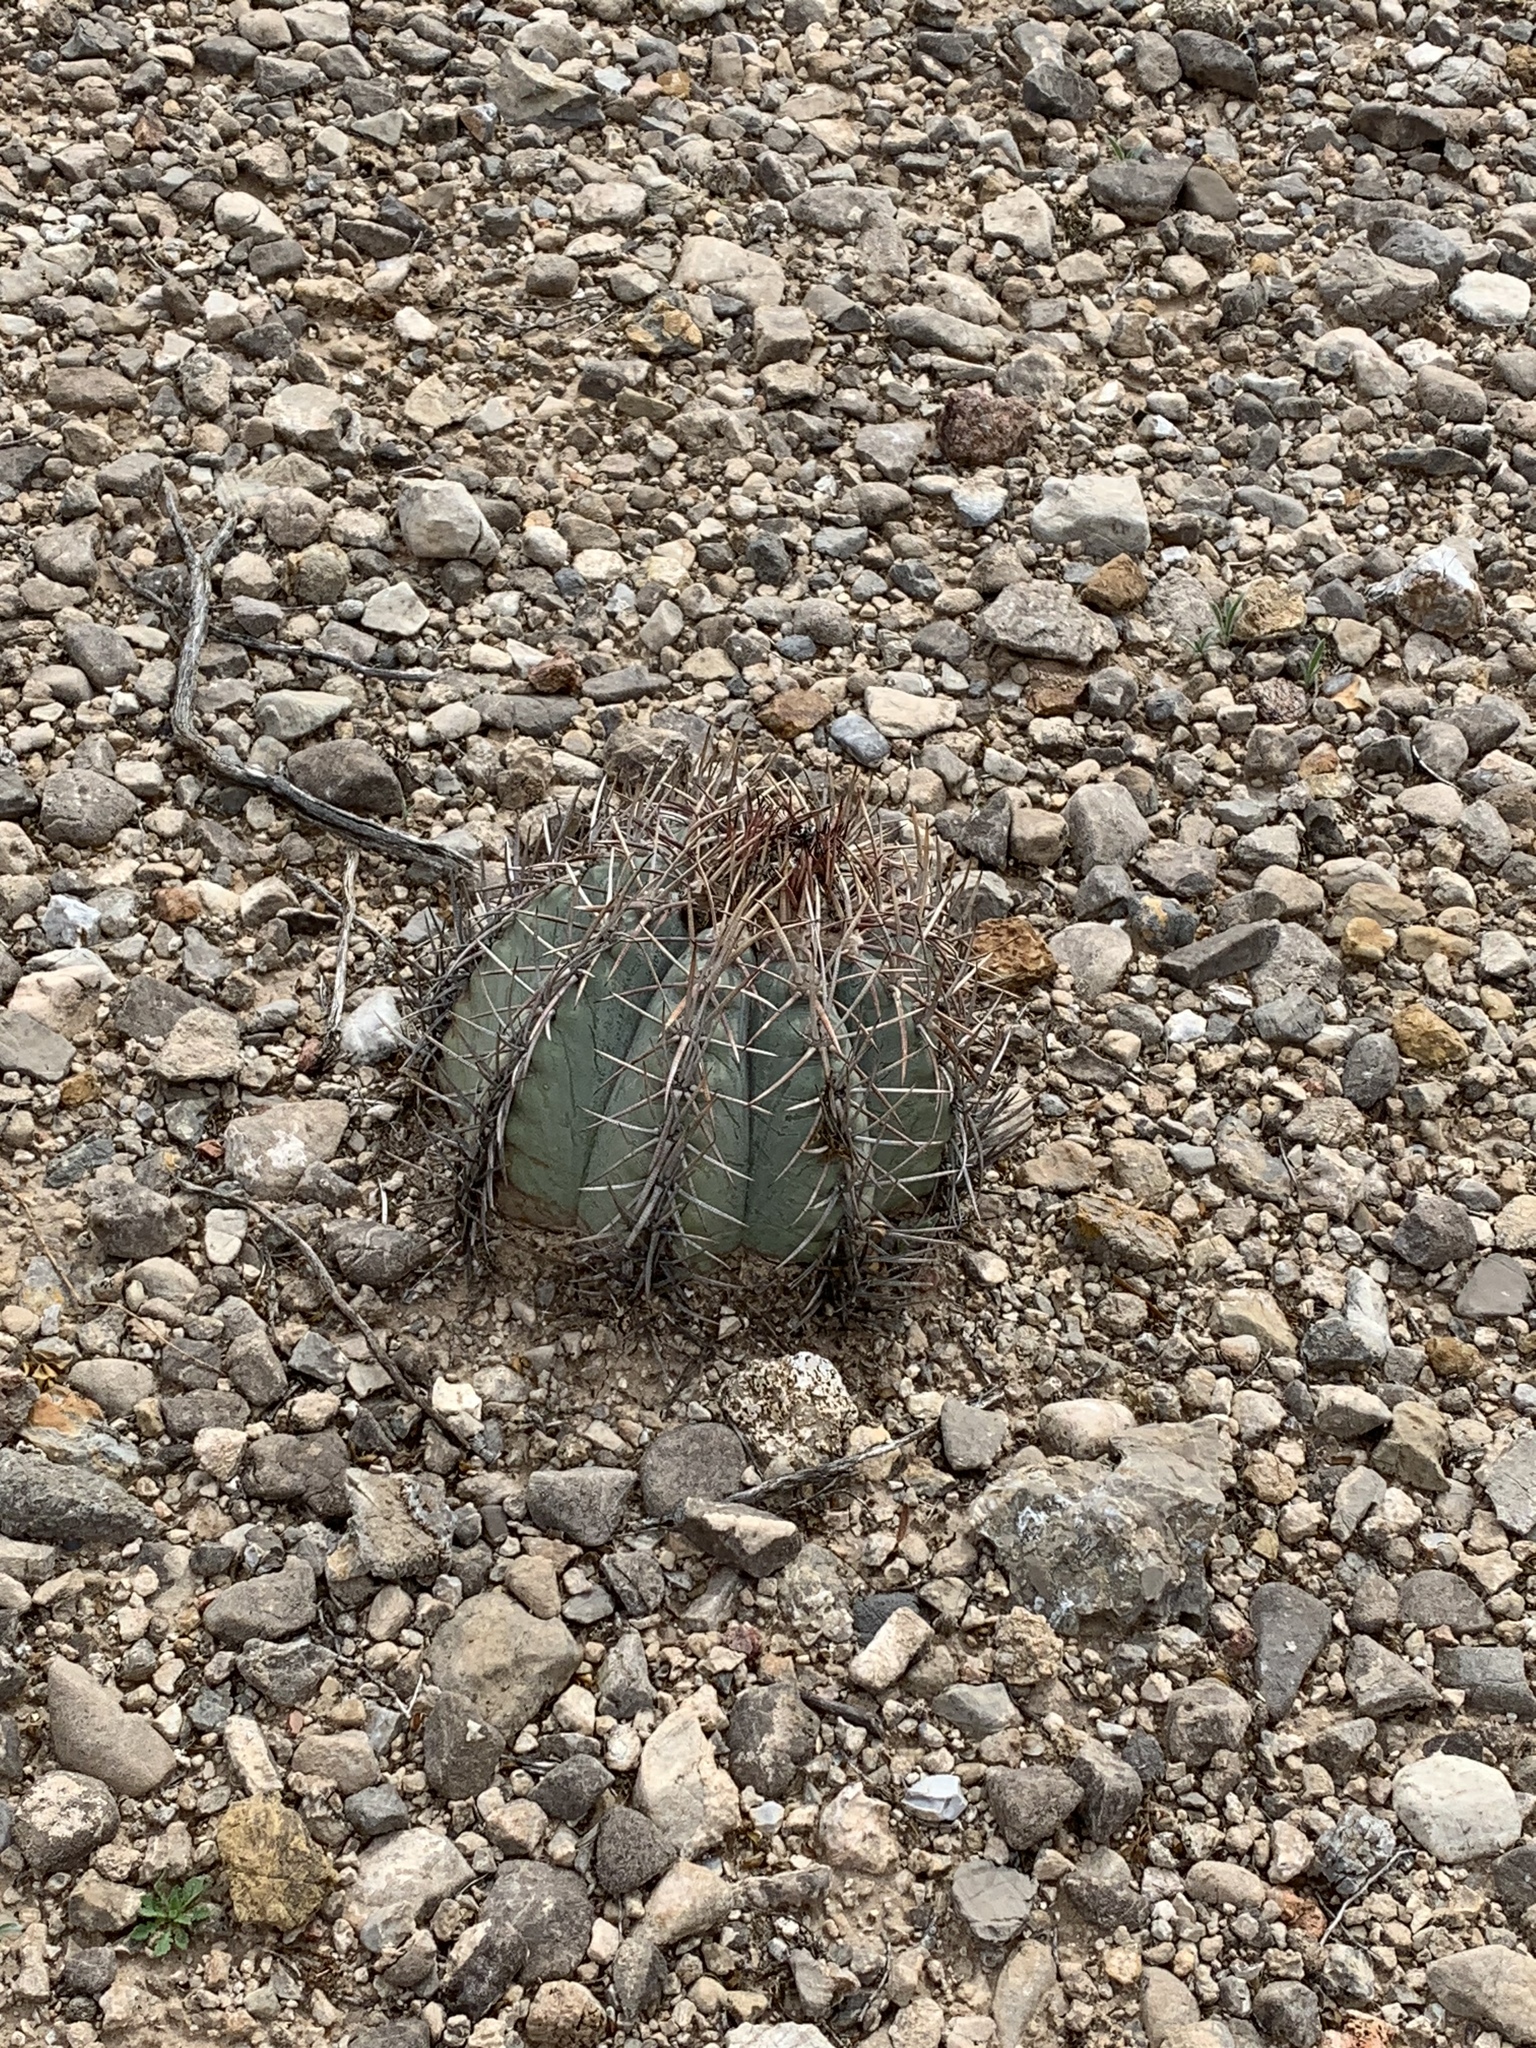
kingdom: Plantae
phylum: Tracheophyta
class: Magnoliopsida
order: Caryophyllales
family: Cactaceae
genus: Echinocactus
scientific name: Echinocactus horizonthalonius
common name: Devilshead
